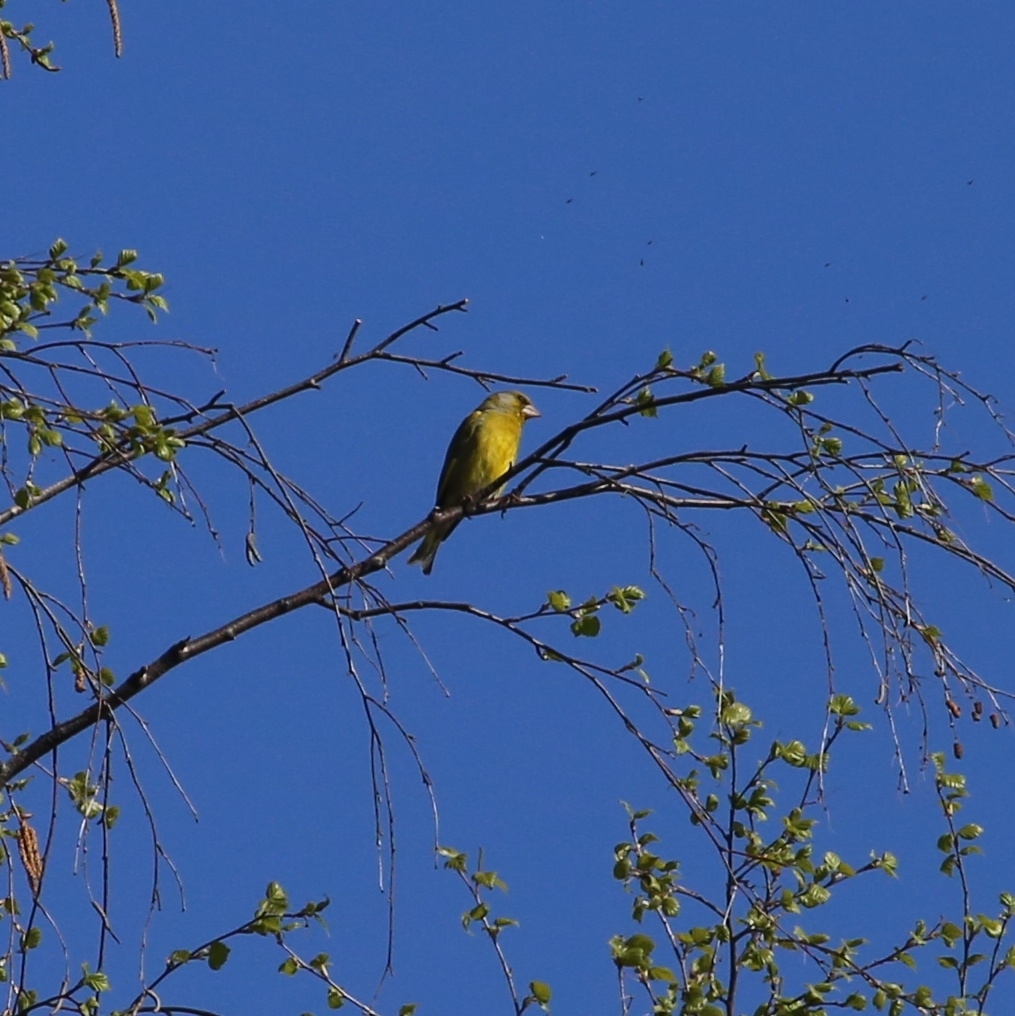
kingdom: Plantae
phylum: Tracheophyta
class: Liliopsida
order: Poales
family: Poaceae
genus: Chloris
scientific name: Chloris chloris
